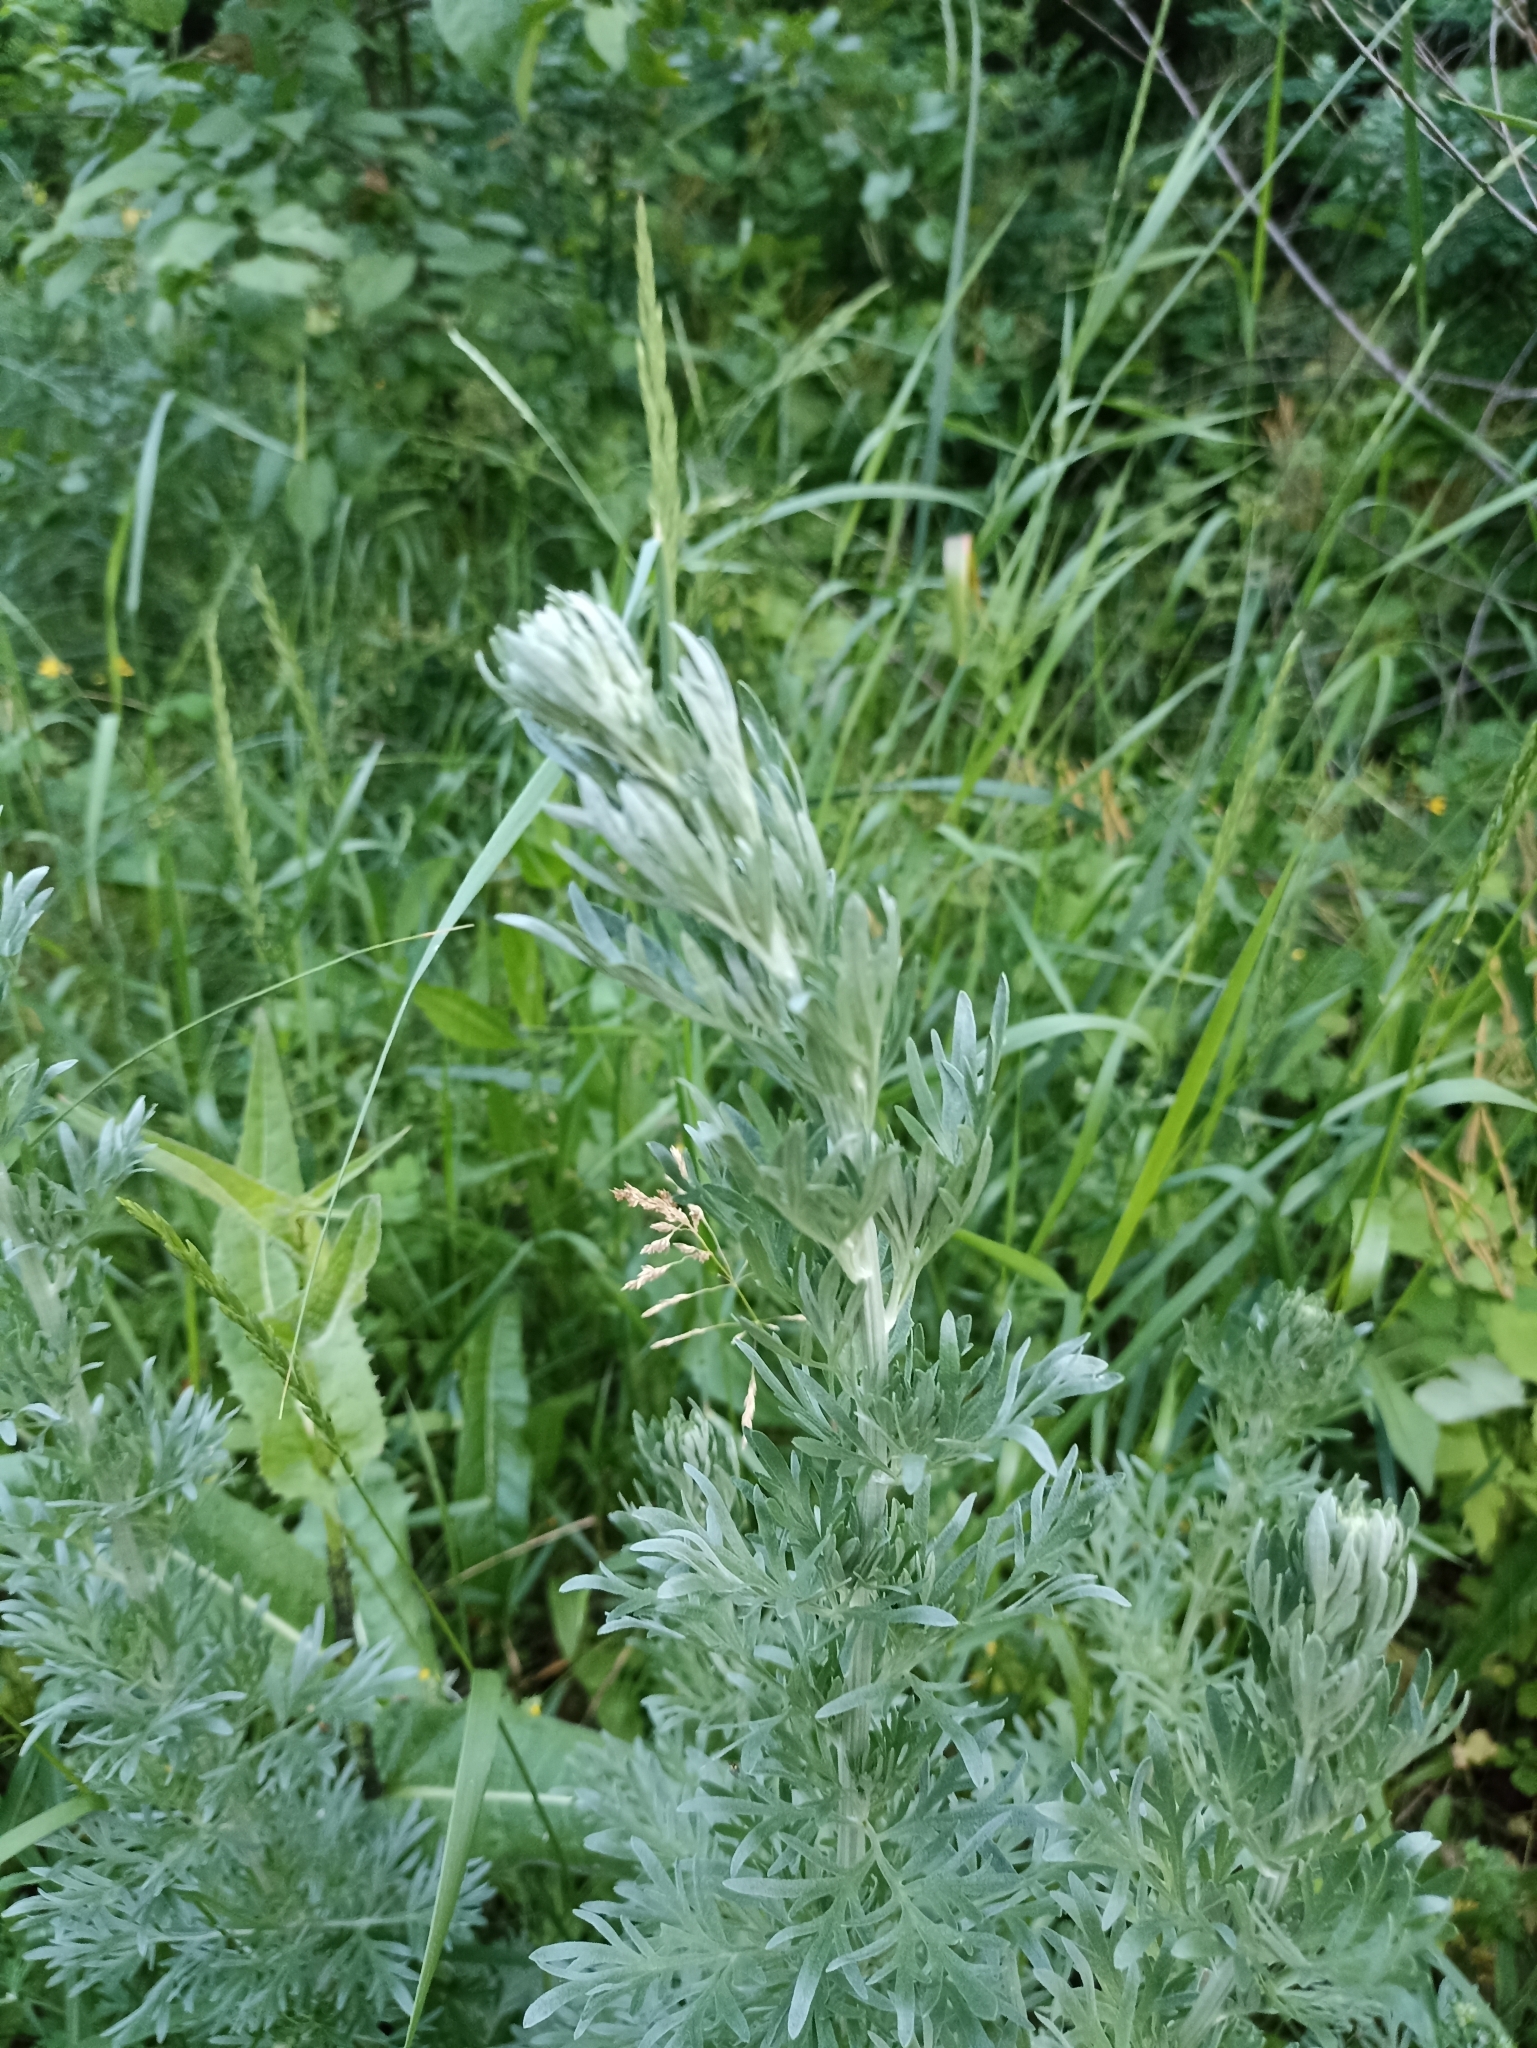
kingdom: Plantae
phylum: Tracheophyta
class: Magnoliopsida
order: Asterales
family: Asteraceae
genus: Artemisia
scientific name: Artemisia absinthium
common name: Wormwood
